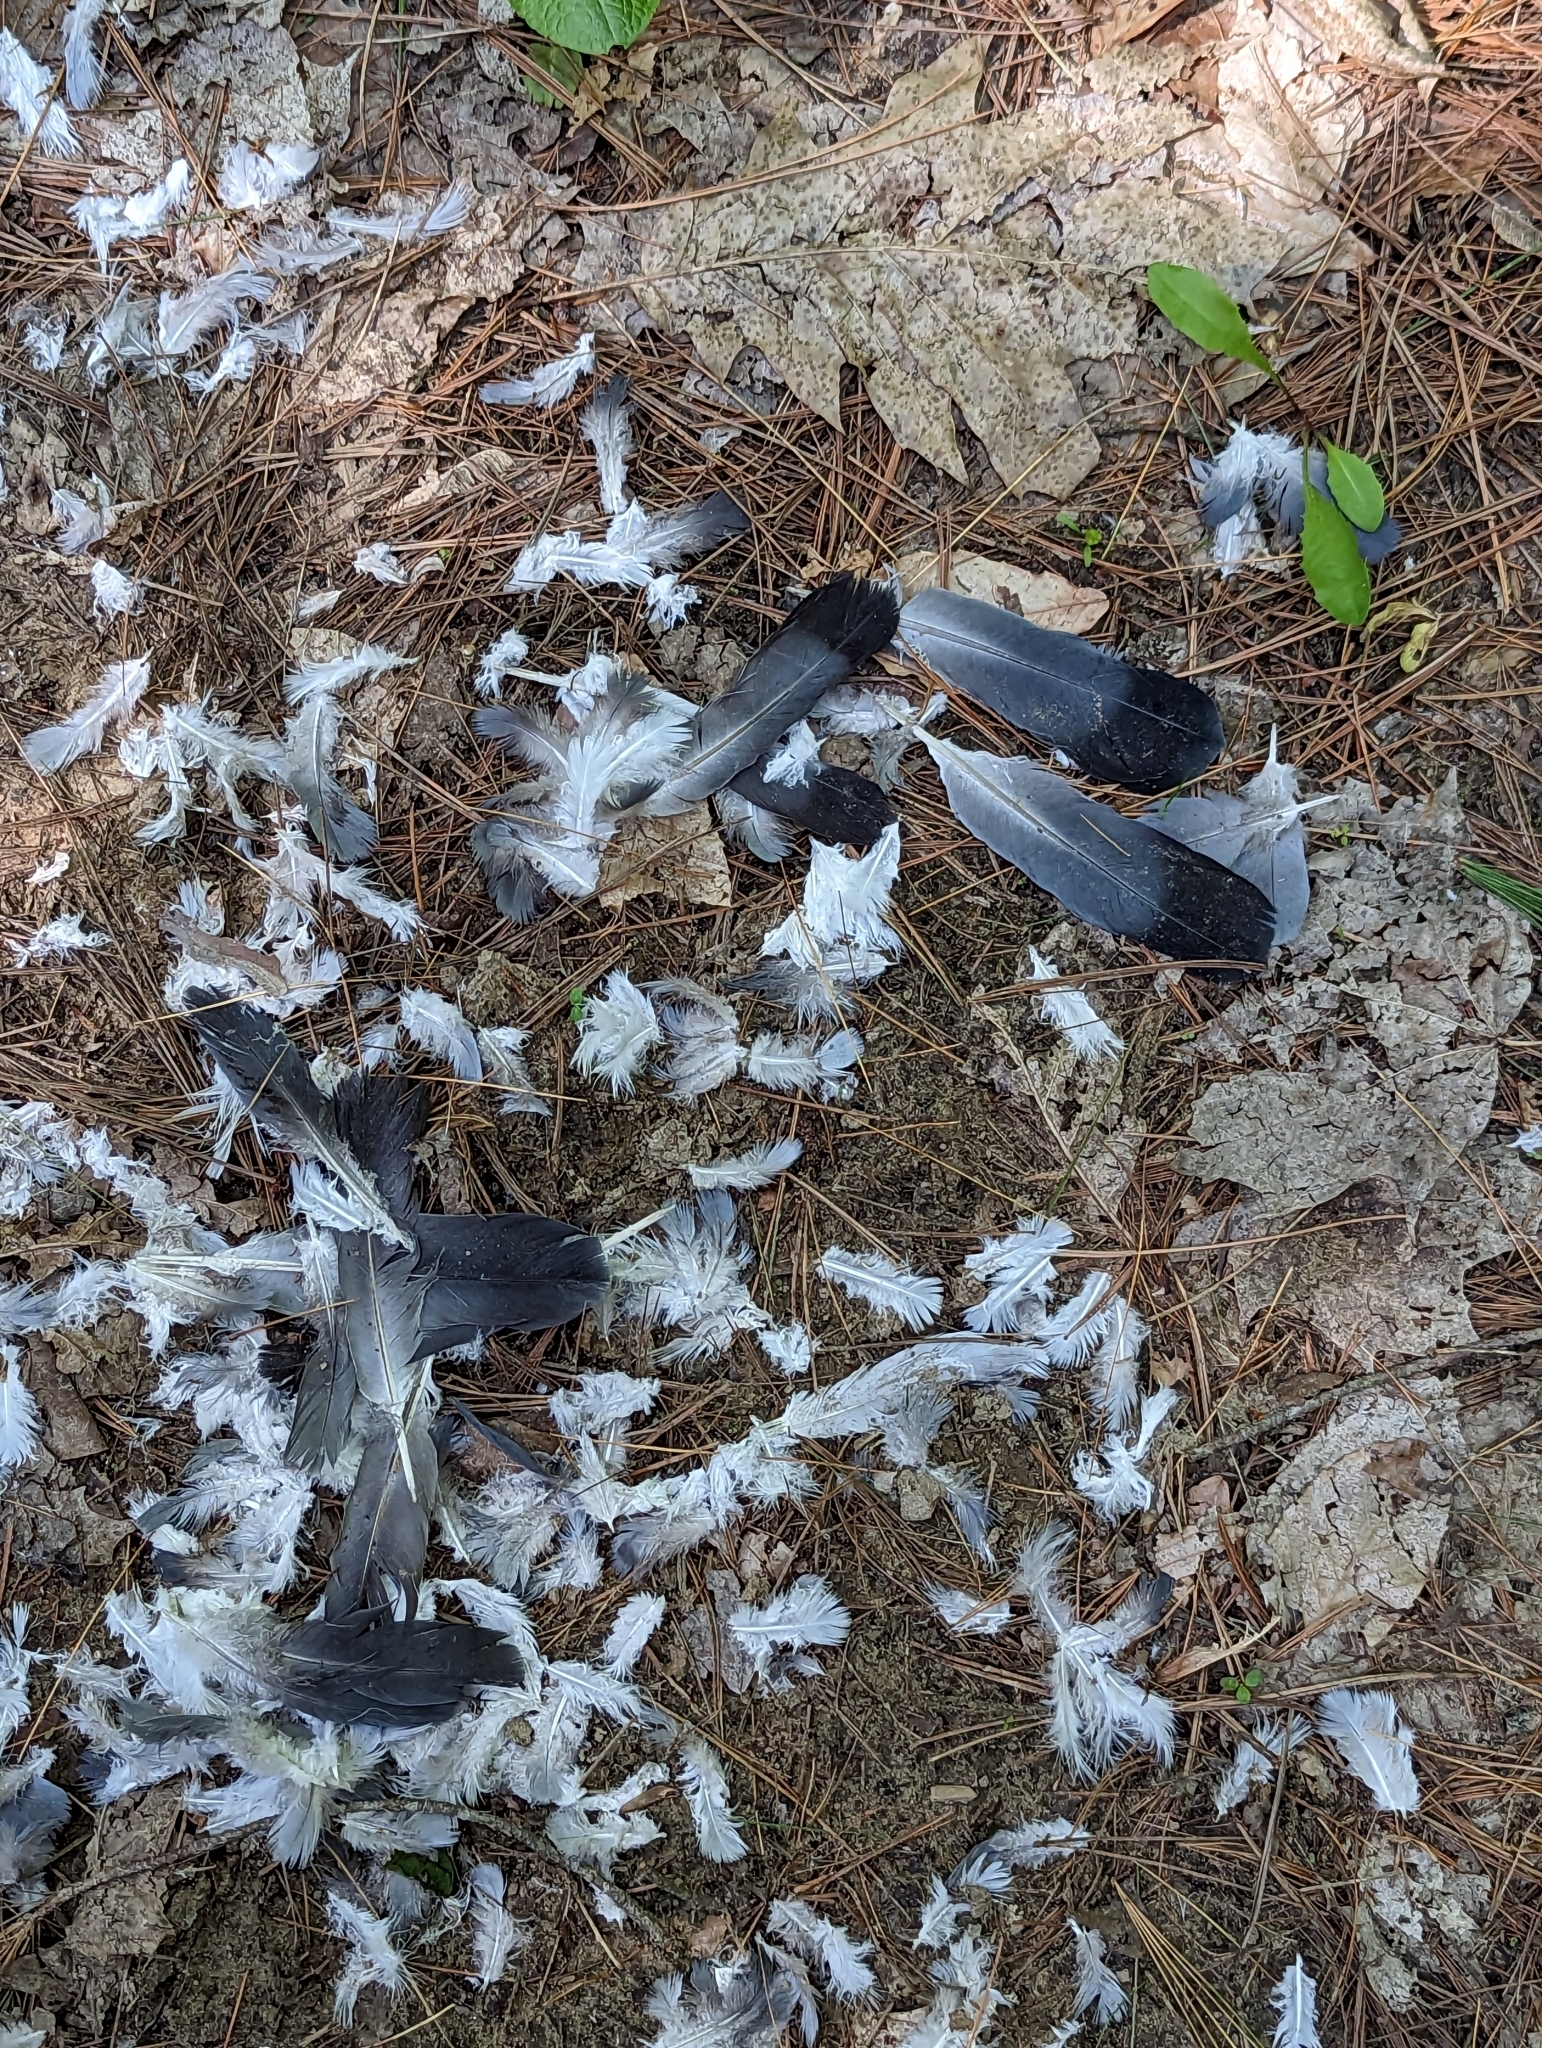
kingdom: Animalia
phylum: Chordata
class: Aves
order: Columbiformes
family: Columbidae
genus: Columba
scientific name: Columba livia
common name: Rock pigeon
